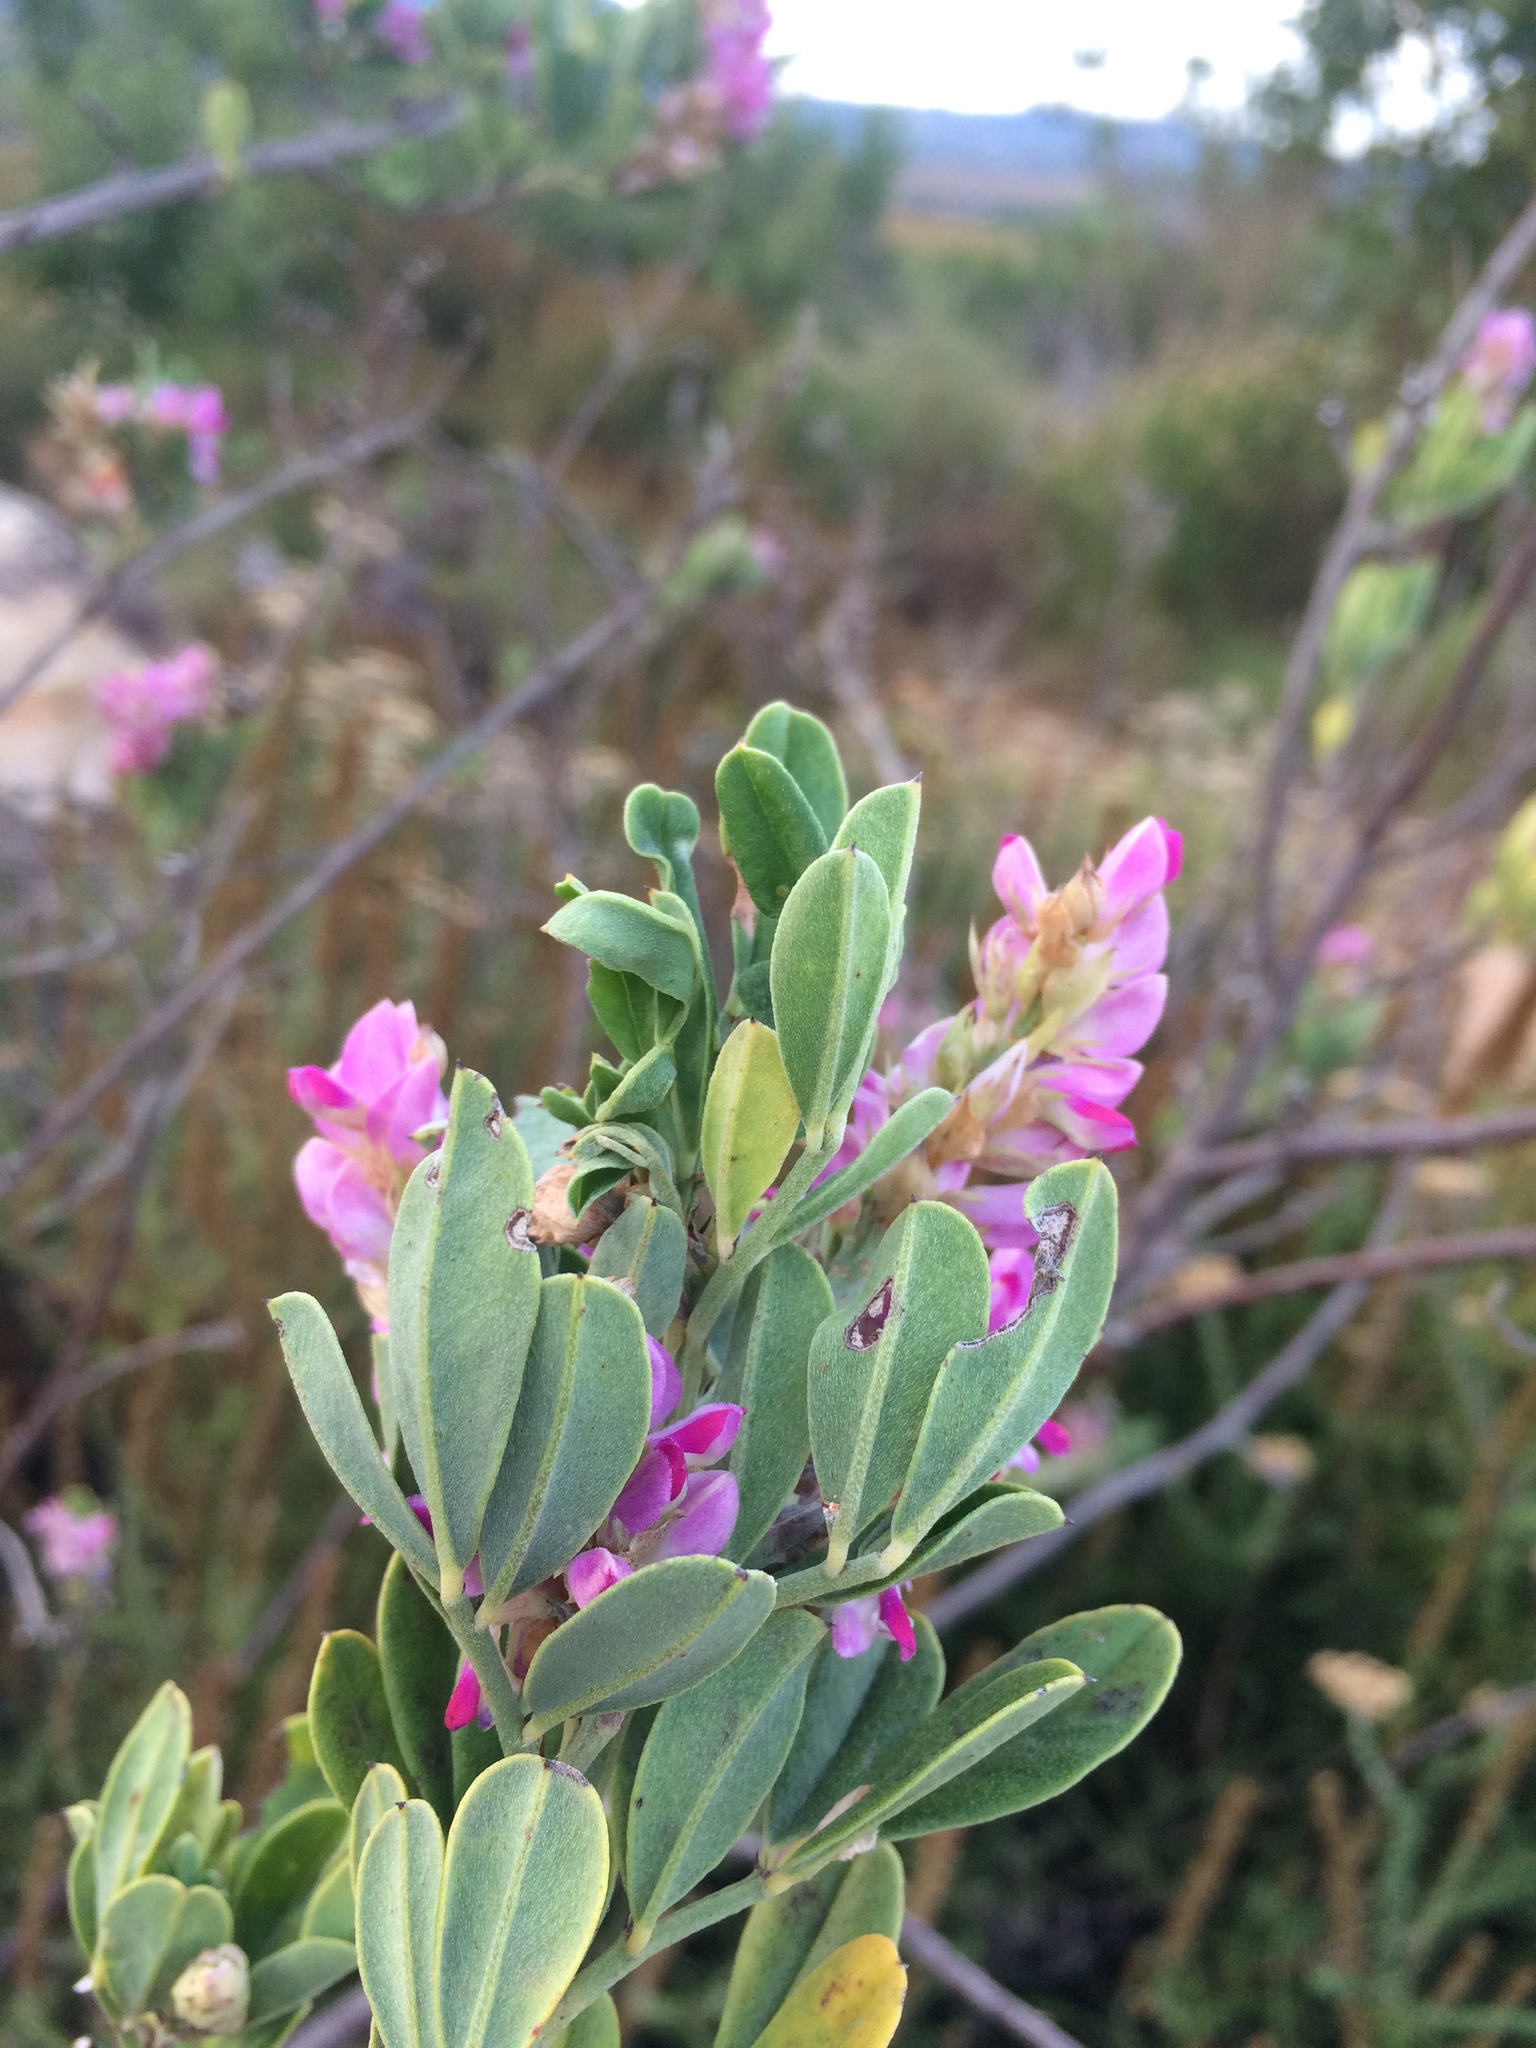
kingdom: Plantae
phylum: Tracheophyta
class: Magnoliopsida
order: Fabales
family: Fabaceae
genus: Indigofera
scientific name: Indigofera cytisoides
